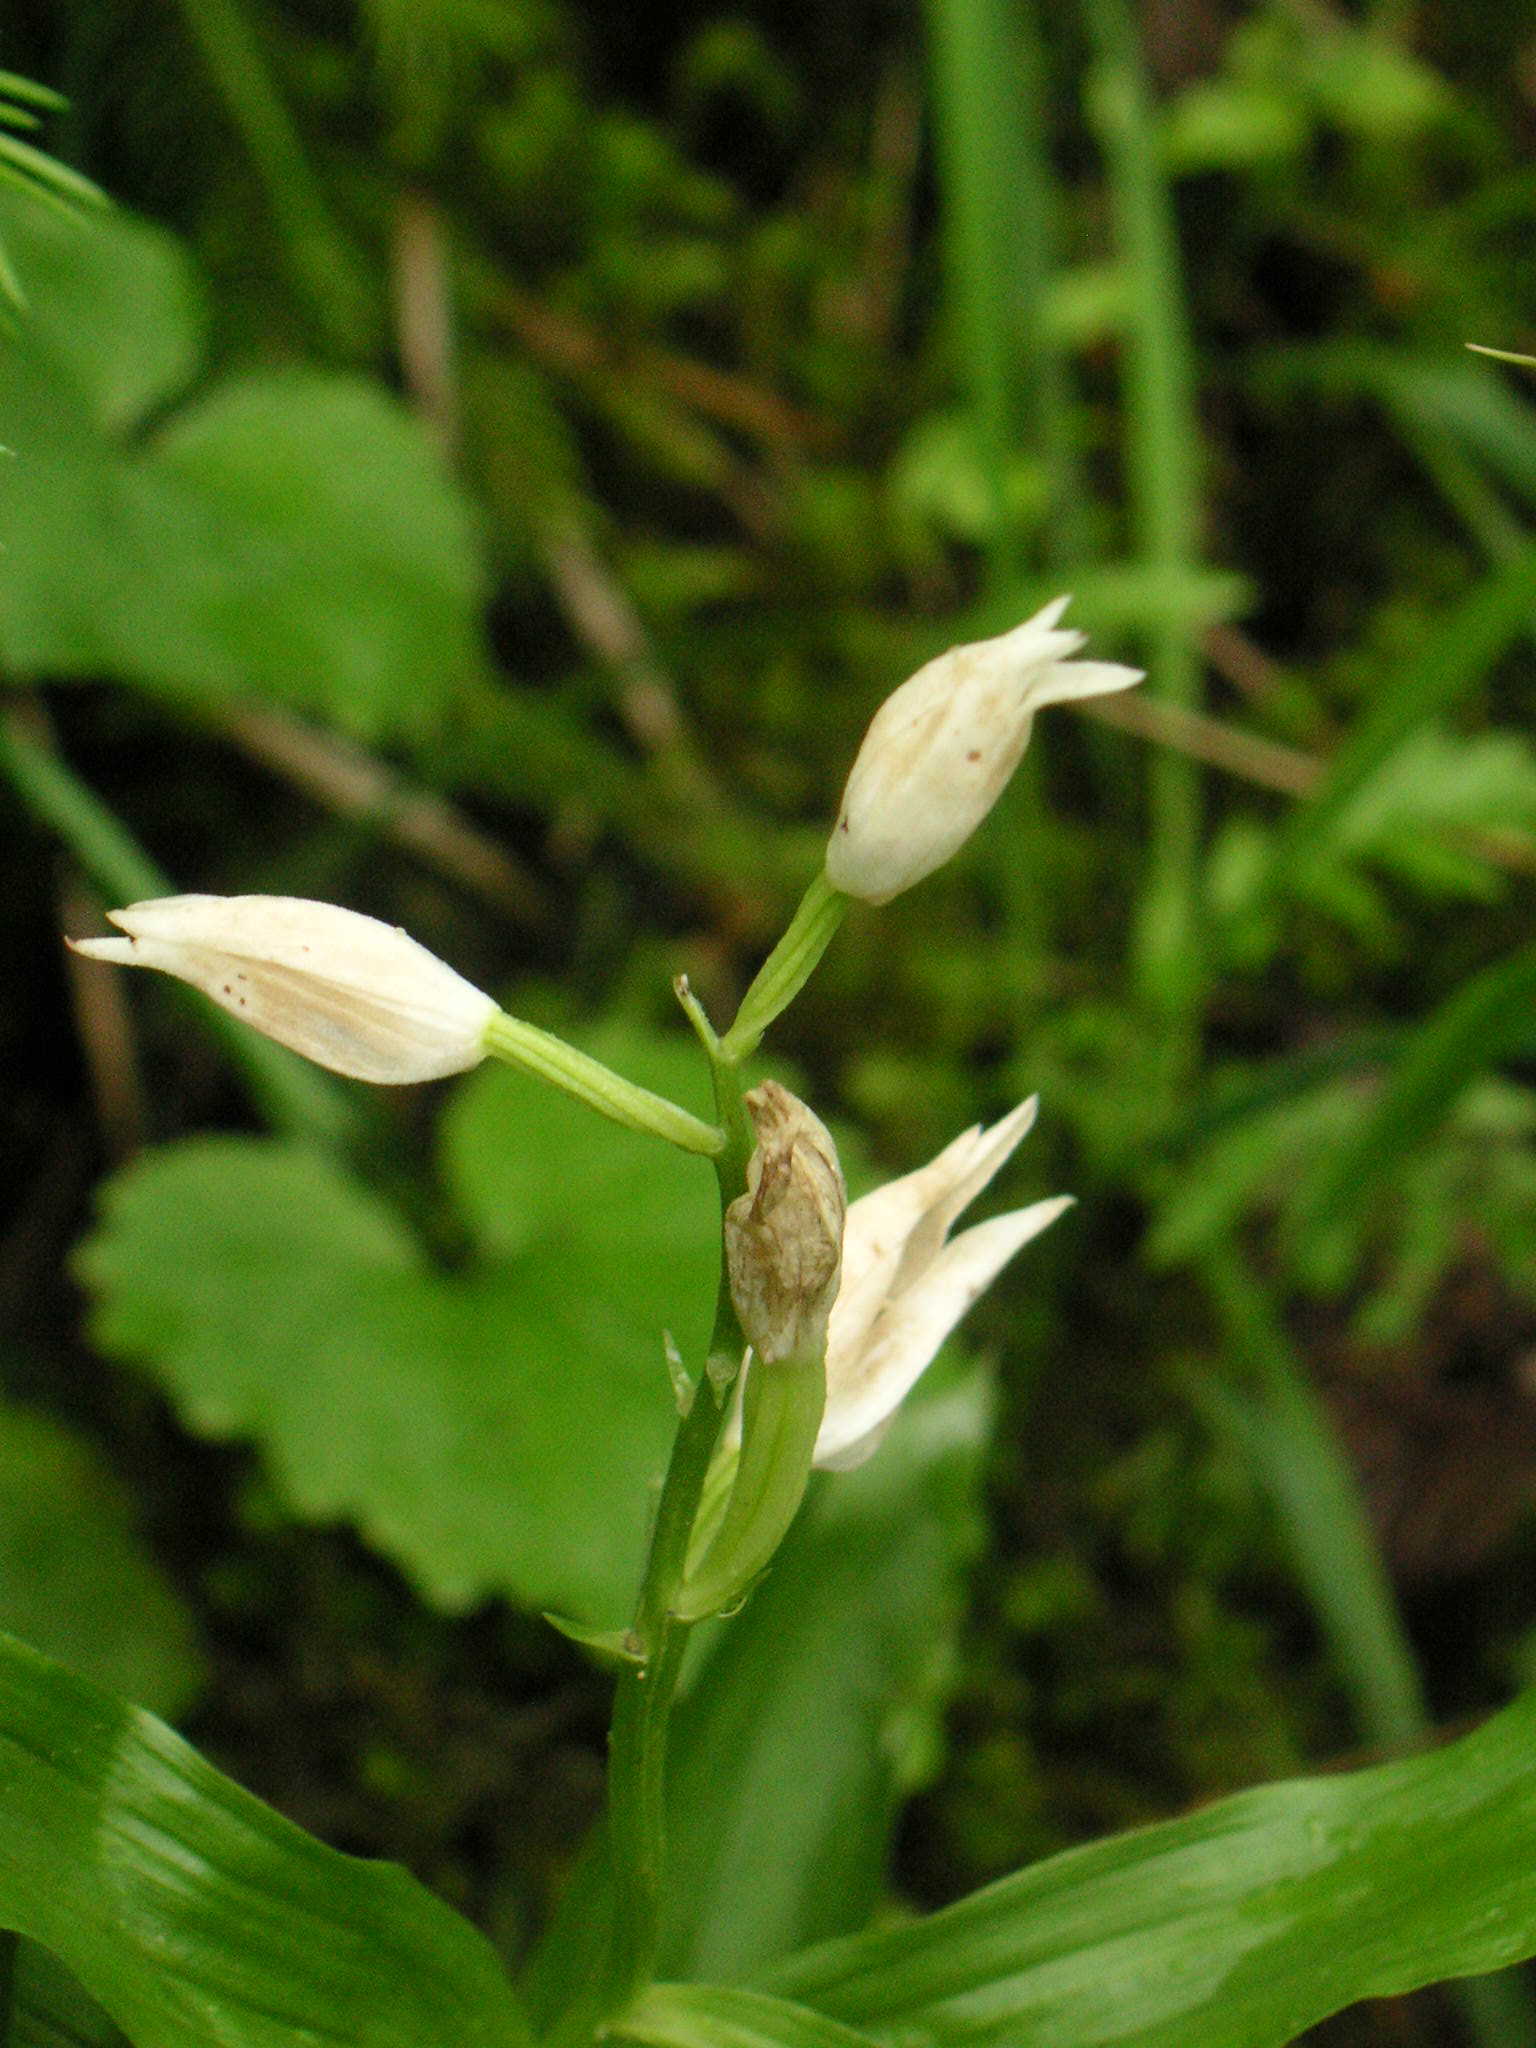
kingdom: Plantae
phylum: Tracheophyta
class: Liliopsida
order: Asparagales
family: Orchidaceae
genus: Cephalanthera
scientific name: Cephalanthera longifolia
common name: Narrow-leaved helleborine
